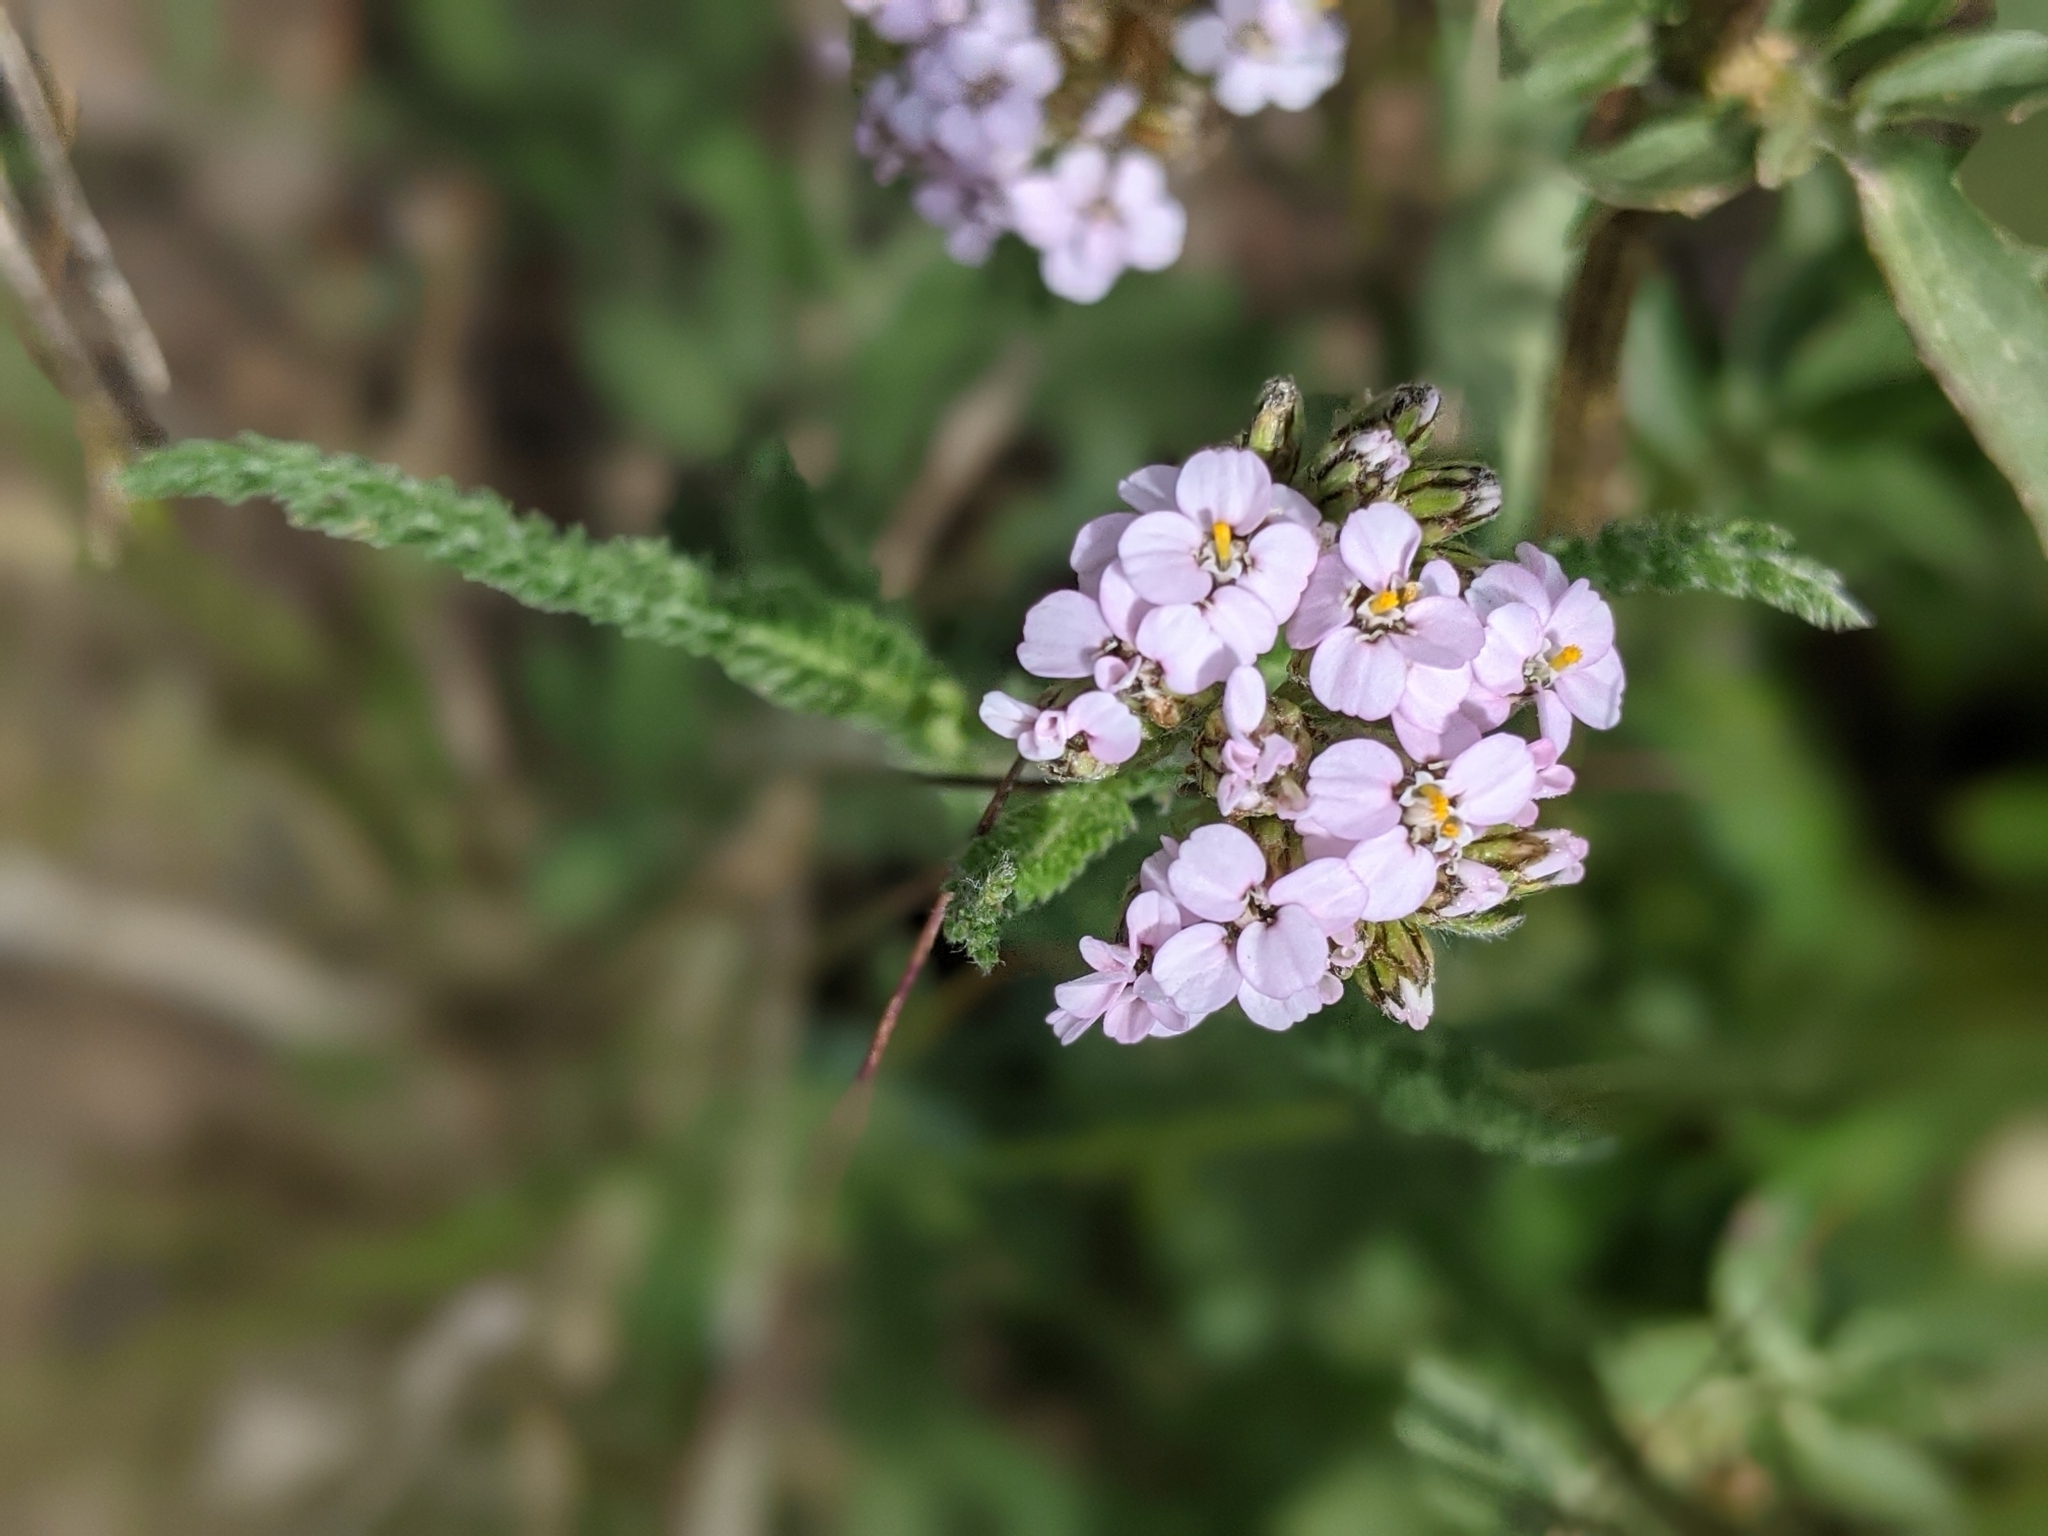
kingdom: Plantae
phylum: Tracheophyta
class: Magnoliopsida
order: Asterales
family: Asteraceae
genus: Achillea
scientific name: Achillea millefolium
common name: Yarrow
